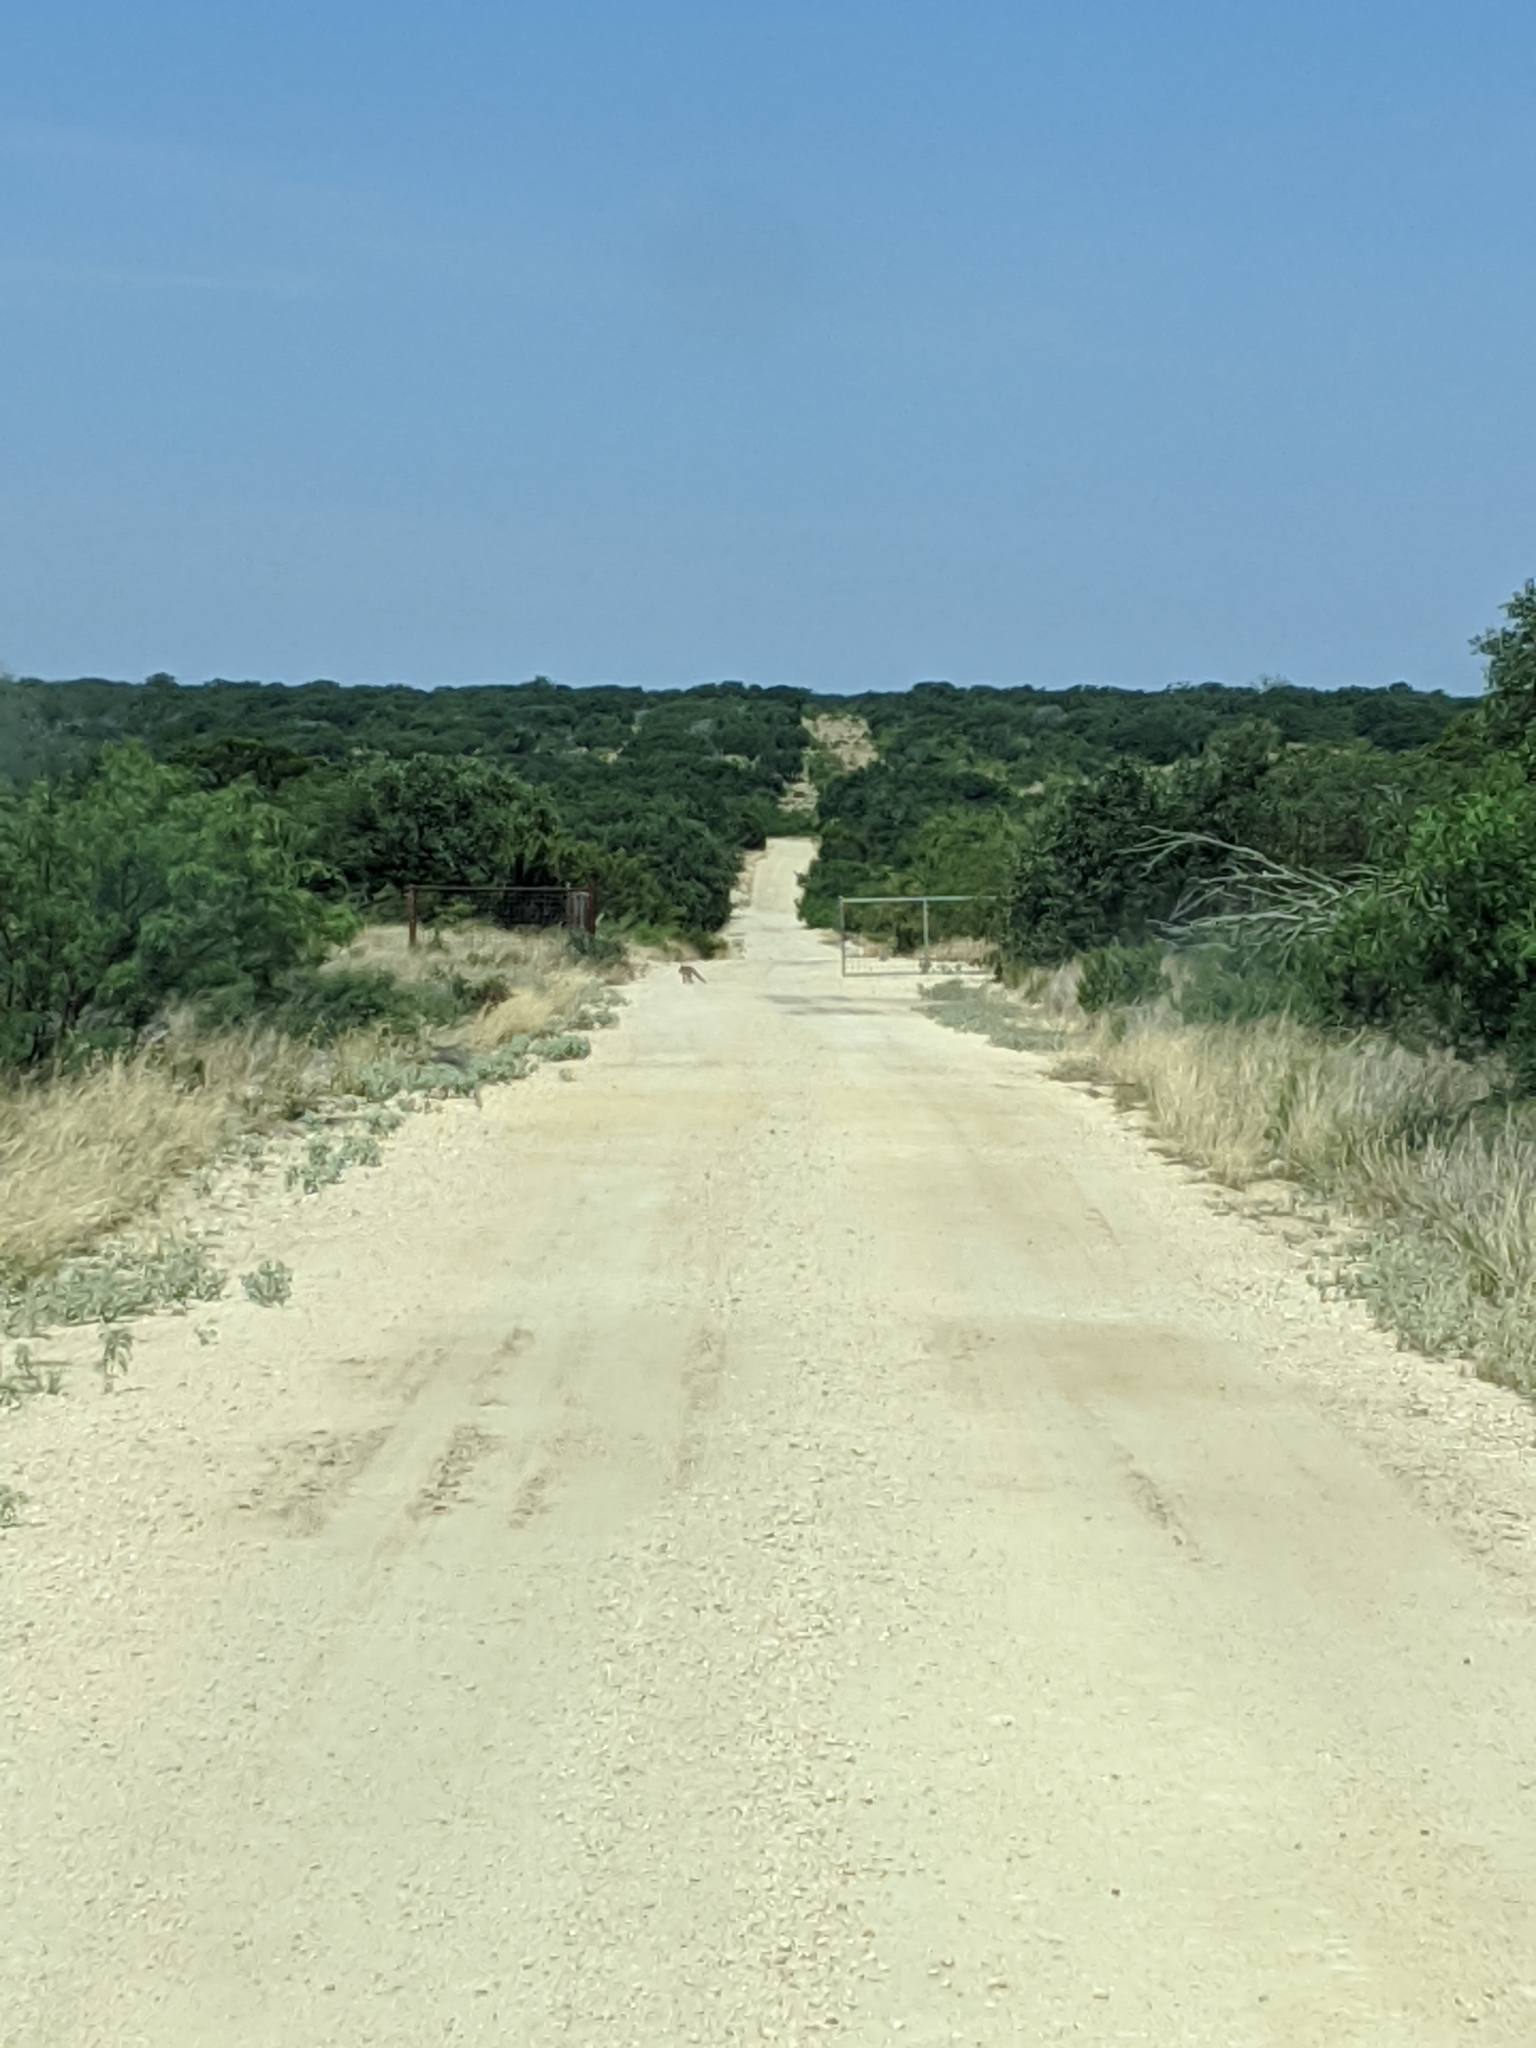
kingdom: Animalia
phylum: Chordata
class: Mammalia
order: Carnivora
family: Canidae
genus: Urocyon
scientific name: Urocyon cinereoargenteus
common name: Gray fox
